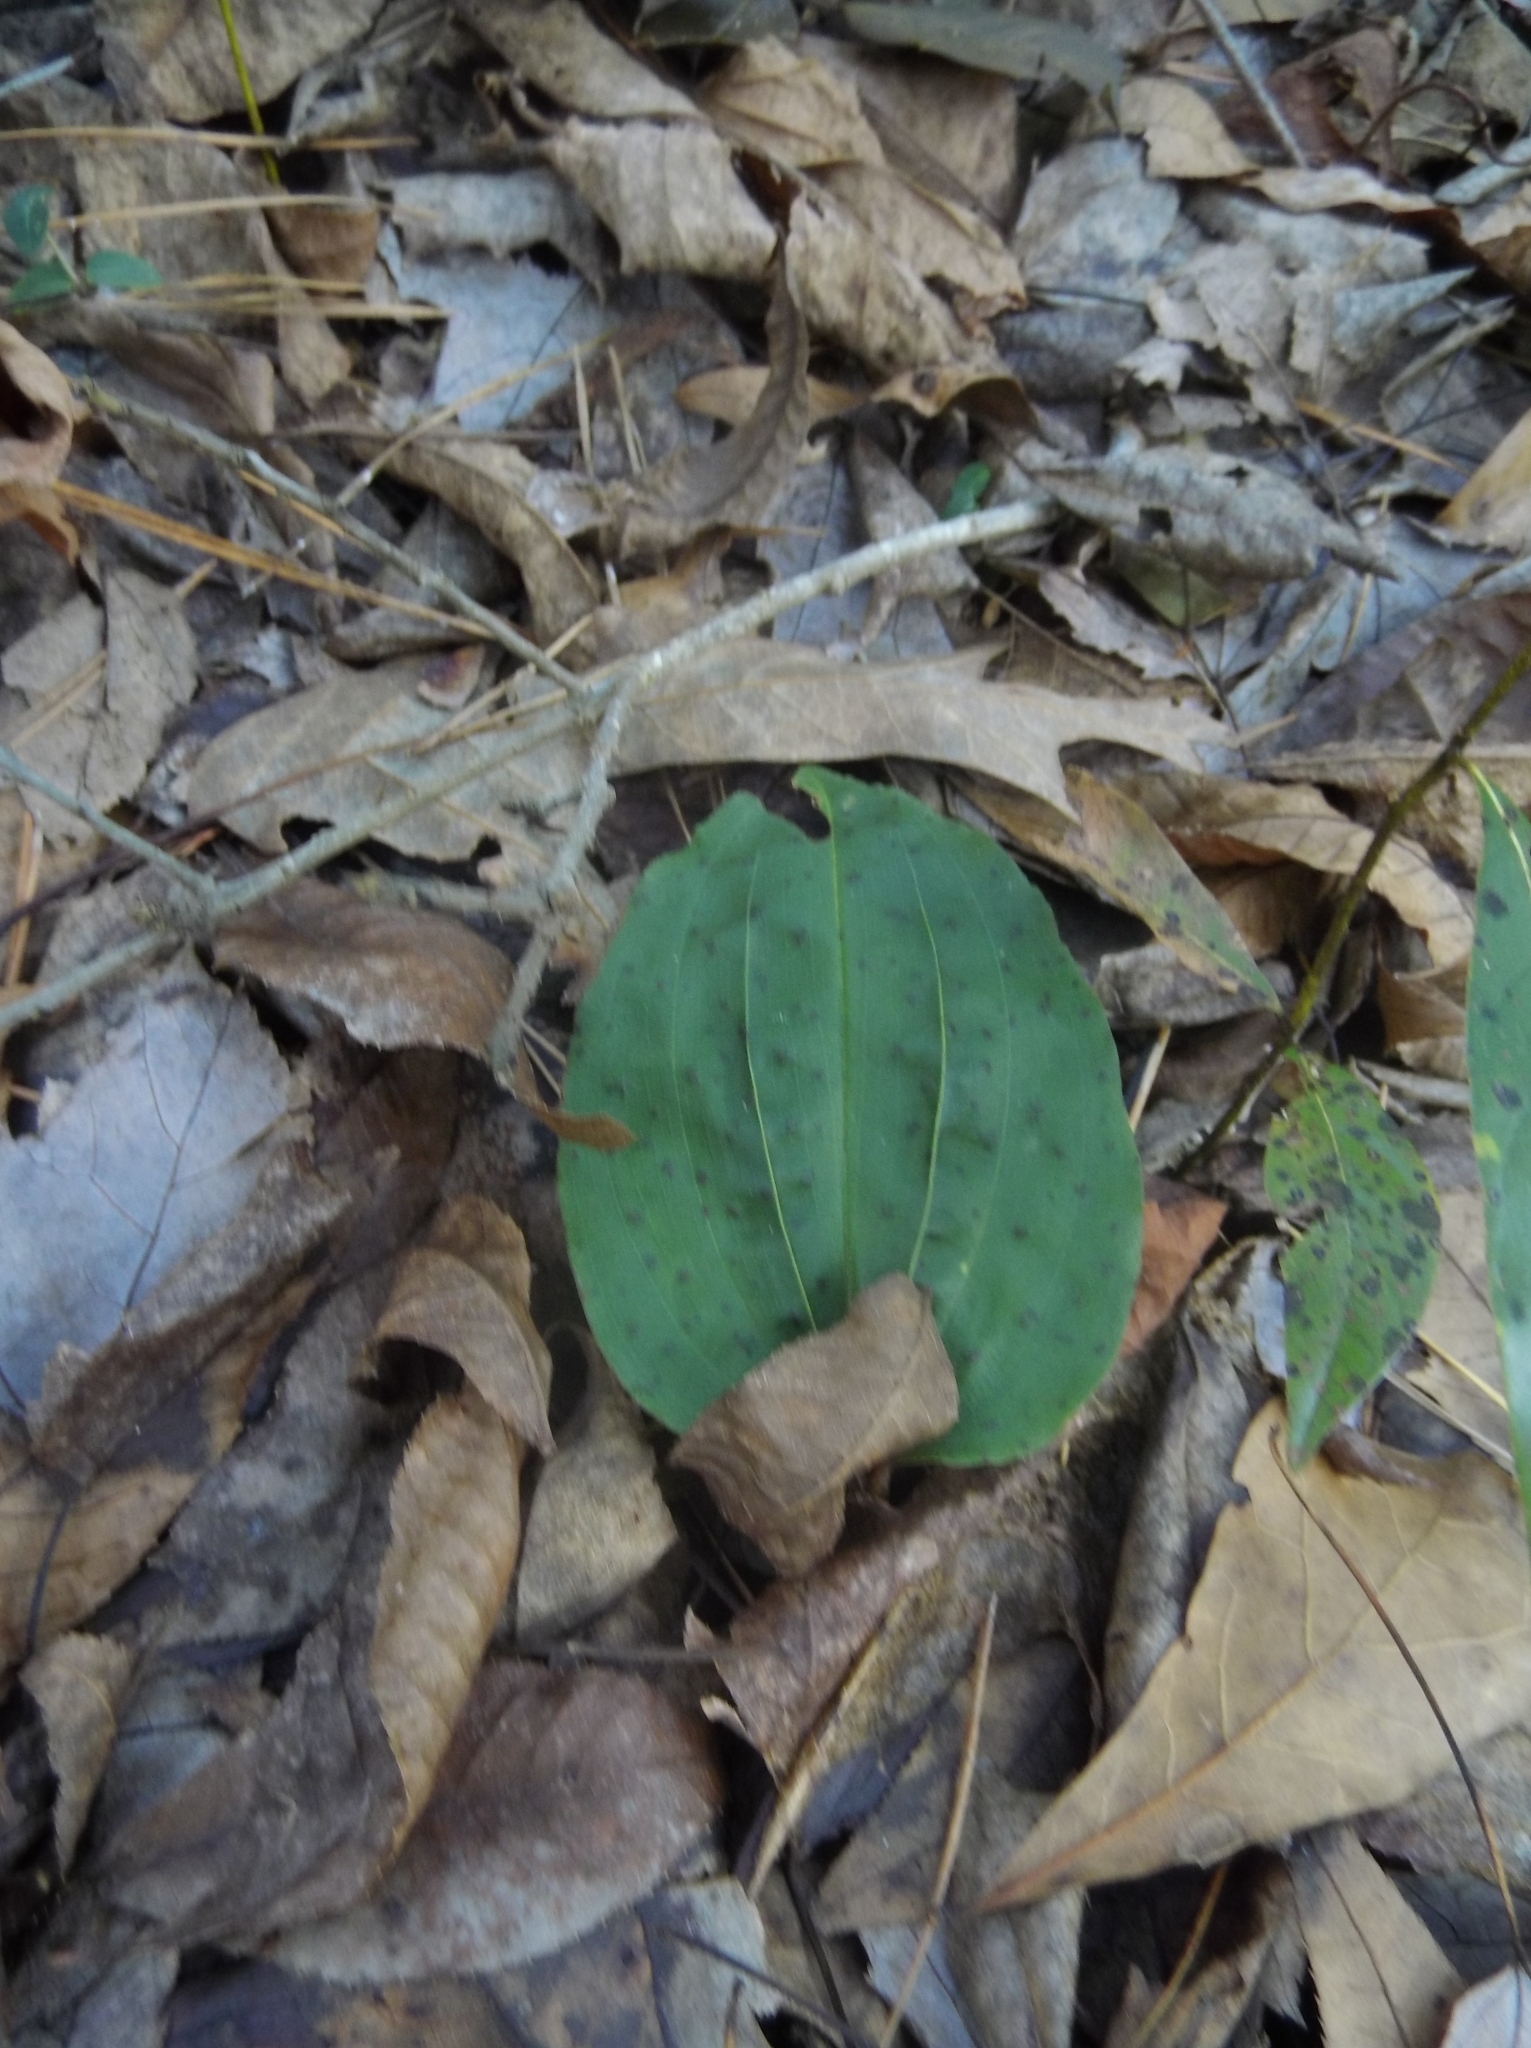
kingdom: Plantae
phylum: Tracheophyta
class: Liliopsida
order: Asparagales
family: Orchidaceae
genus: Tipularia
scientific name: Tipularia discolor
